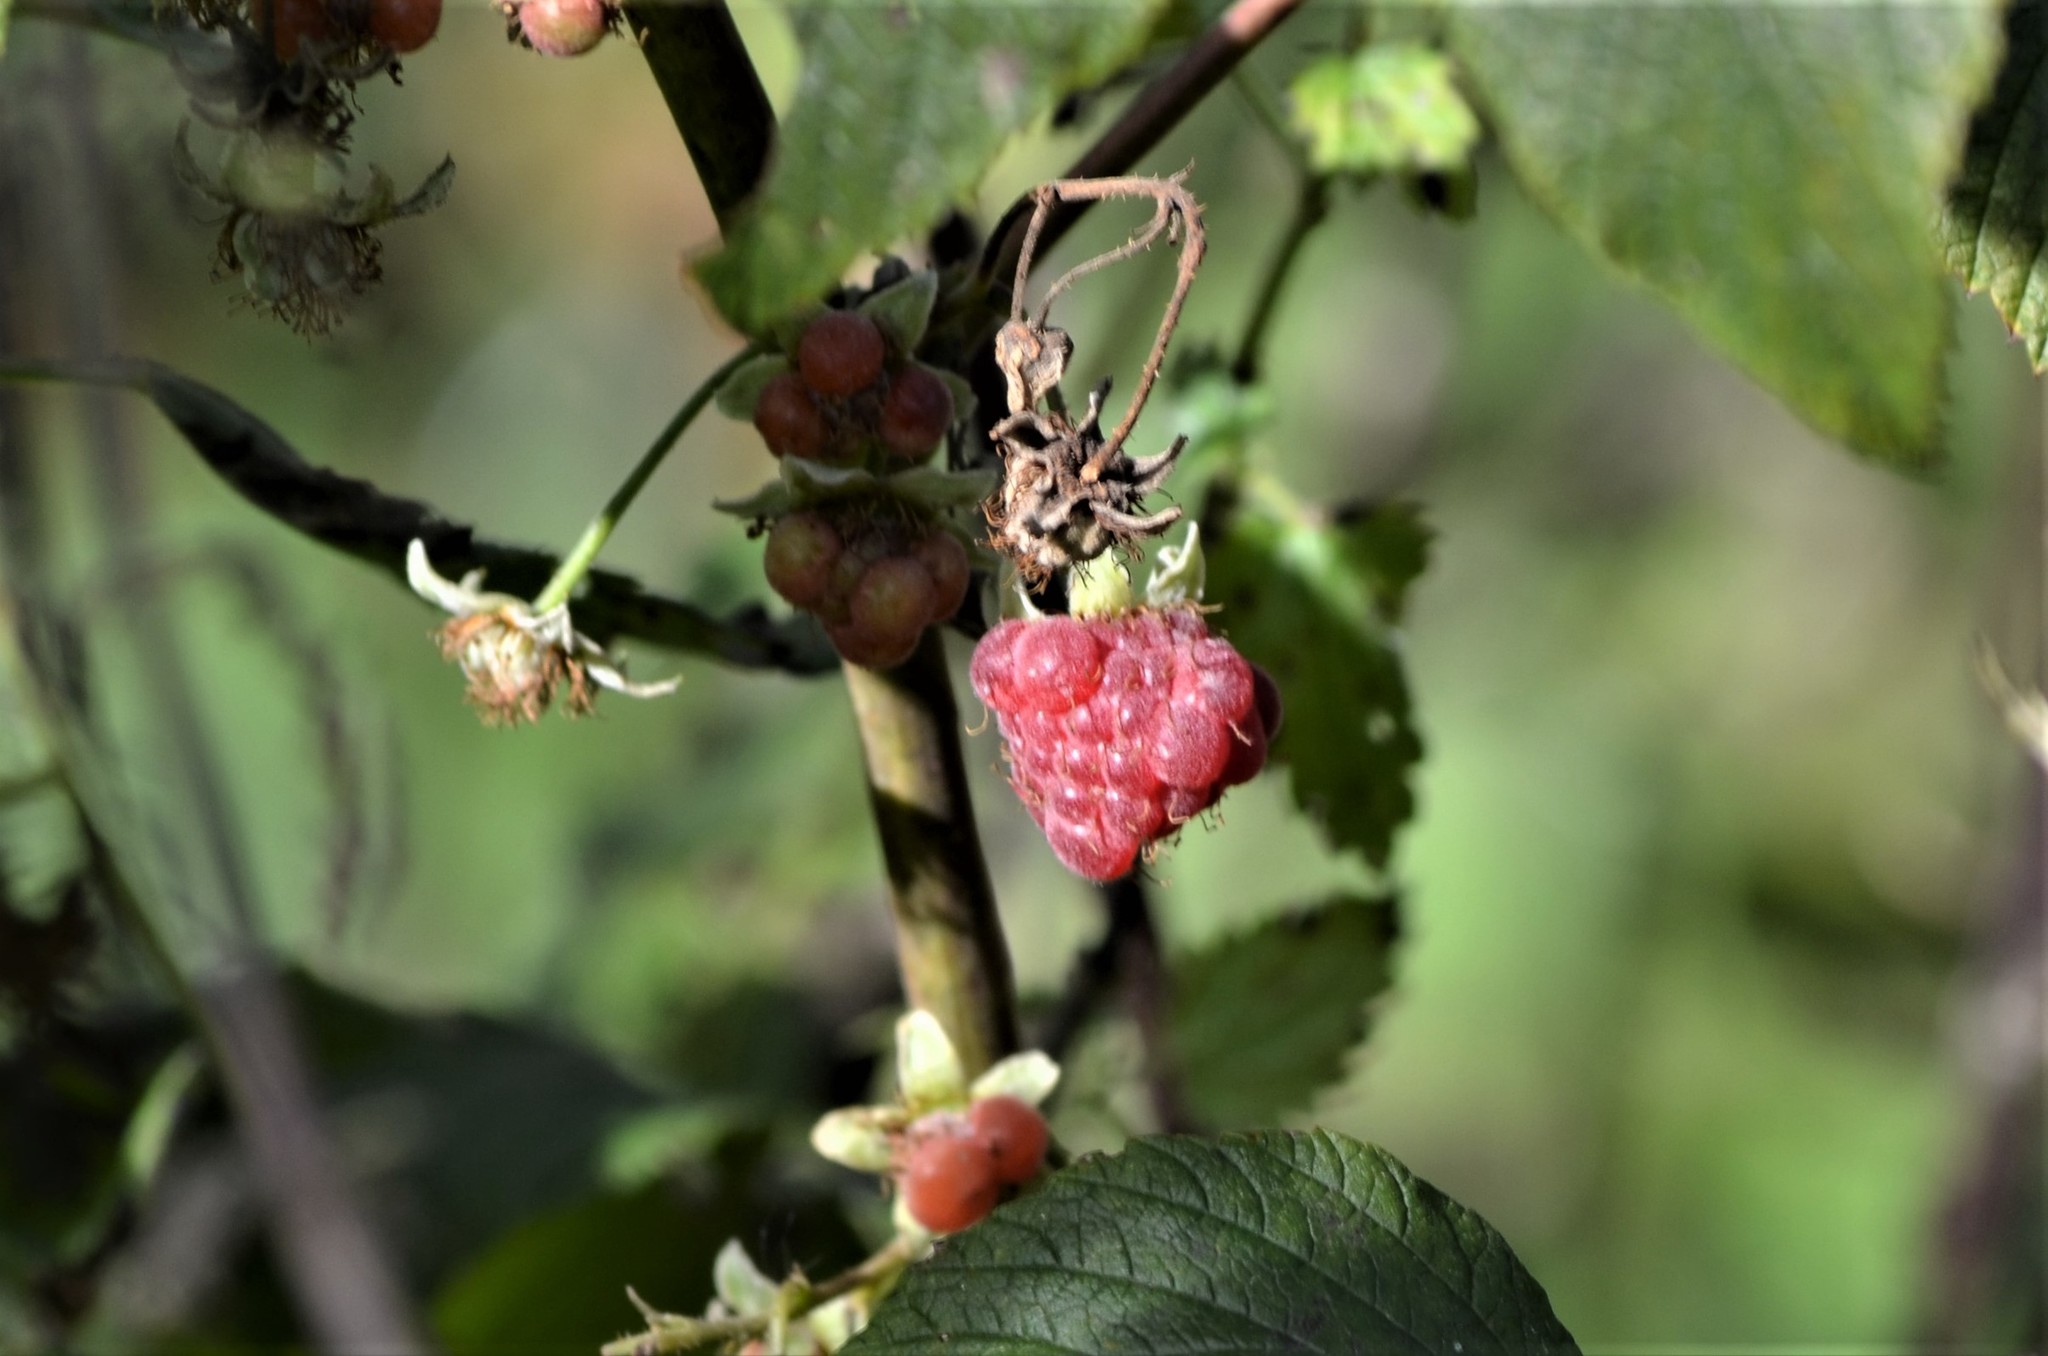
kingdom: Plantae
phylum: Tracheophyta
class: Magnoliopsida
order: Rosales
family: Rosaceae
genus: Rubus
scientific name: Rubus idaeus
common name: Raspberry
